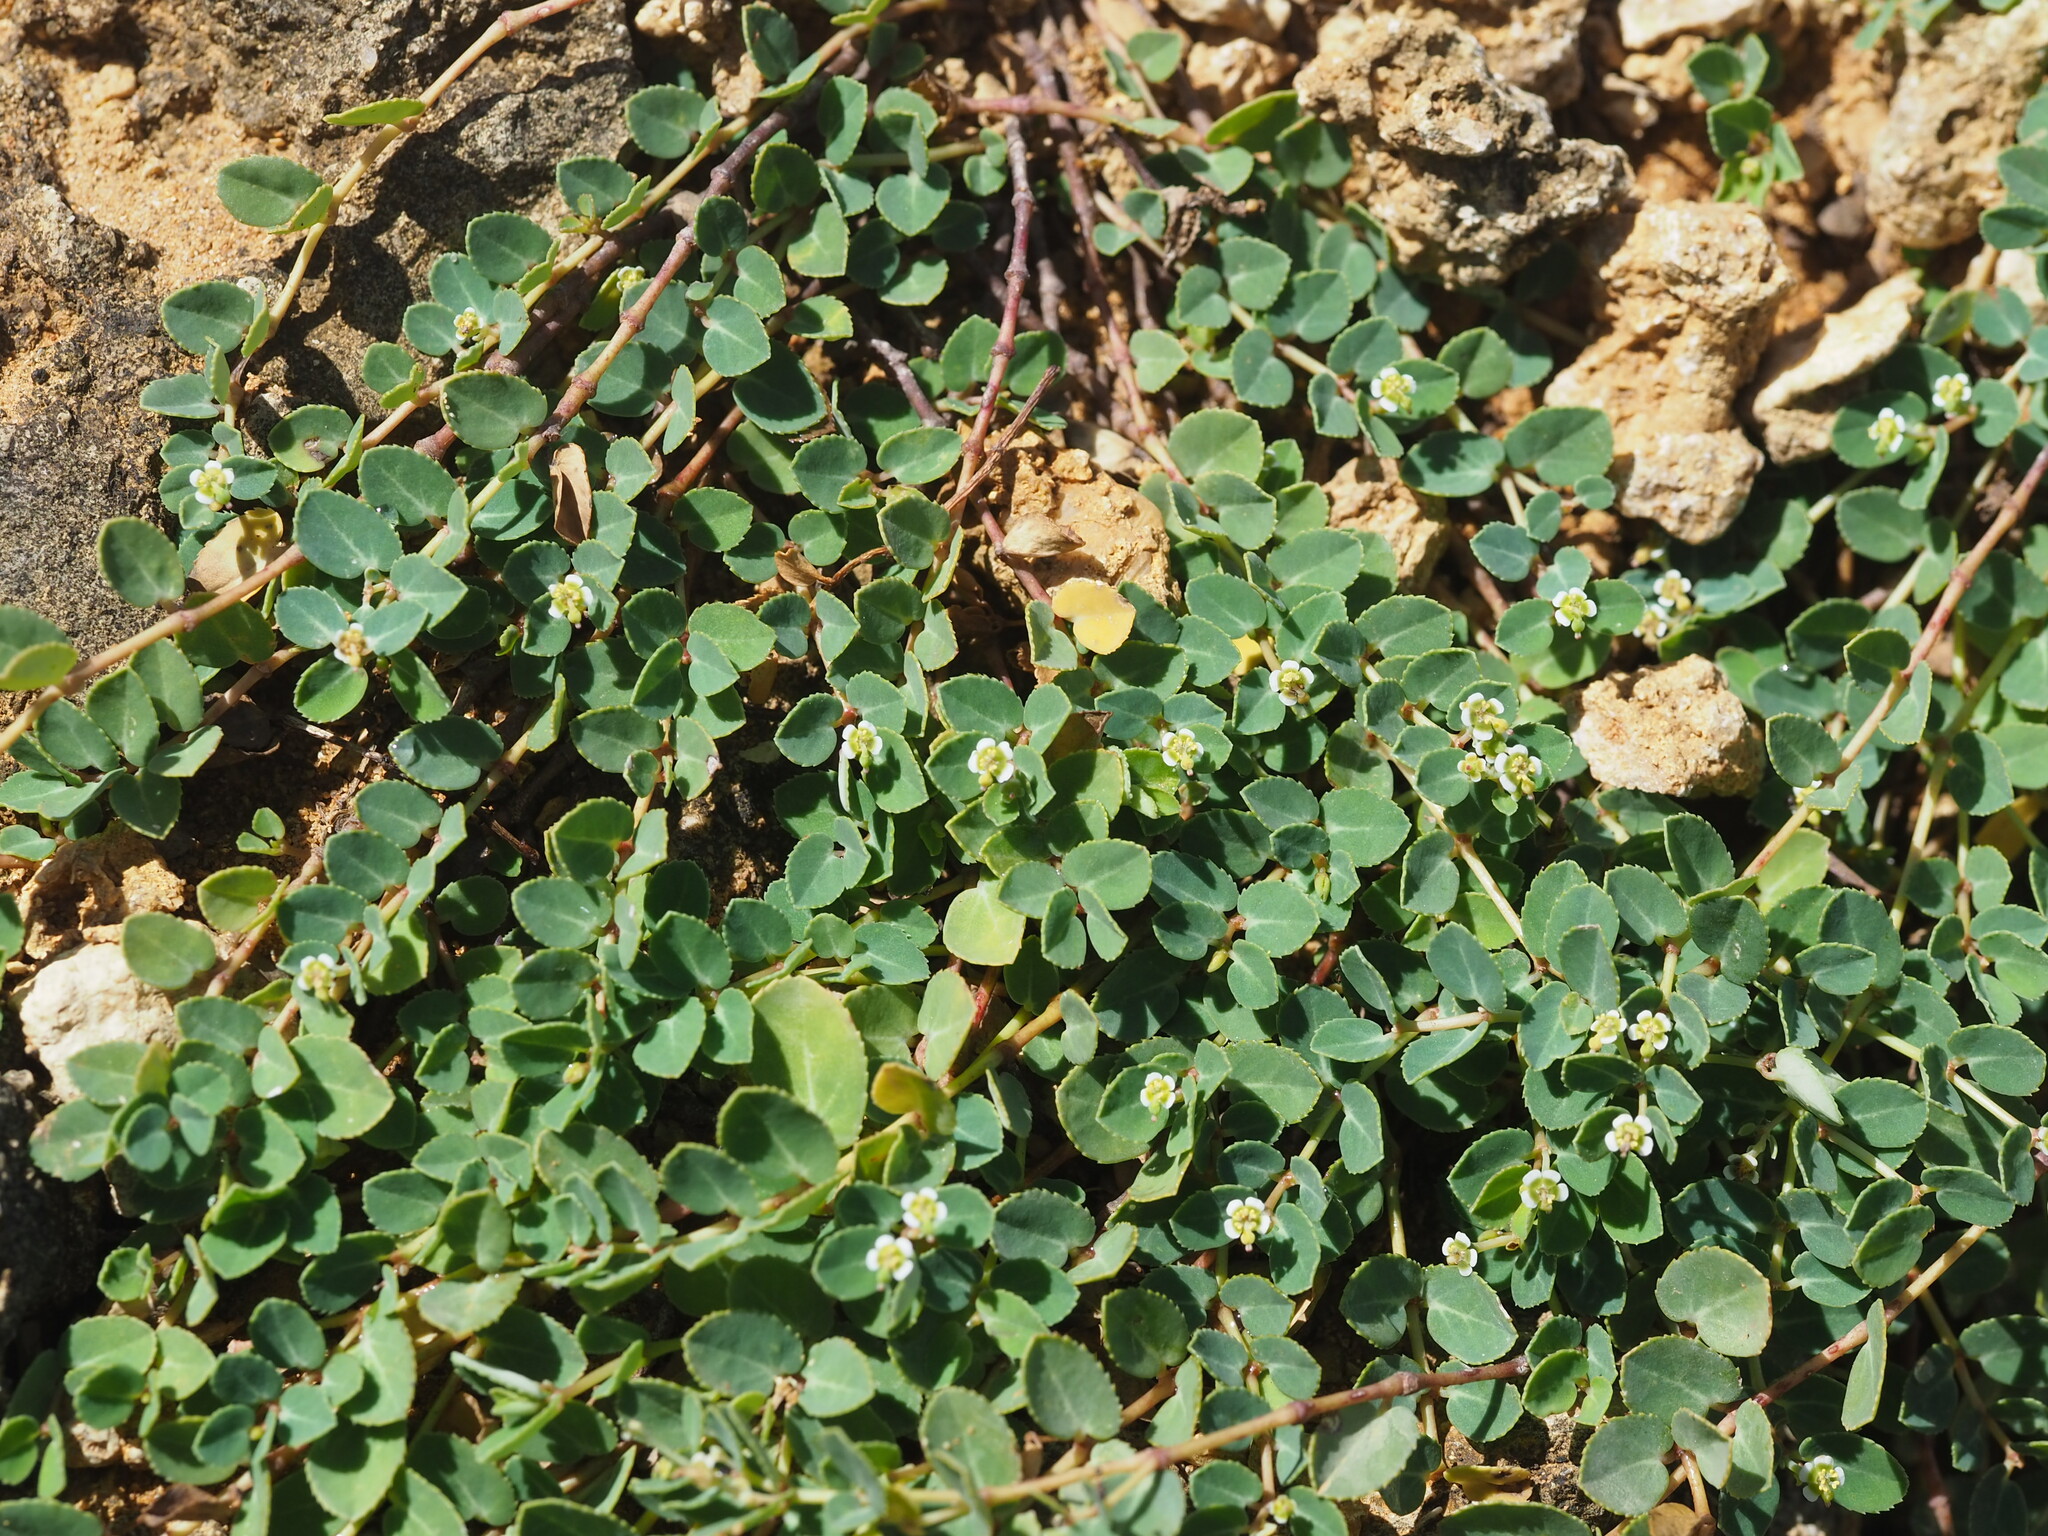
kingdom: Plantae
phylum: Tracheophyta
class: Magnoliopsida
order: Malpighiales
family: Euphorbiaceae
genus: Euphorbia
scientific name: Euphorbia garanbiensis
